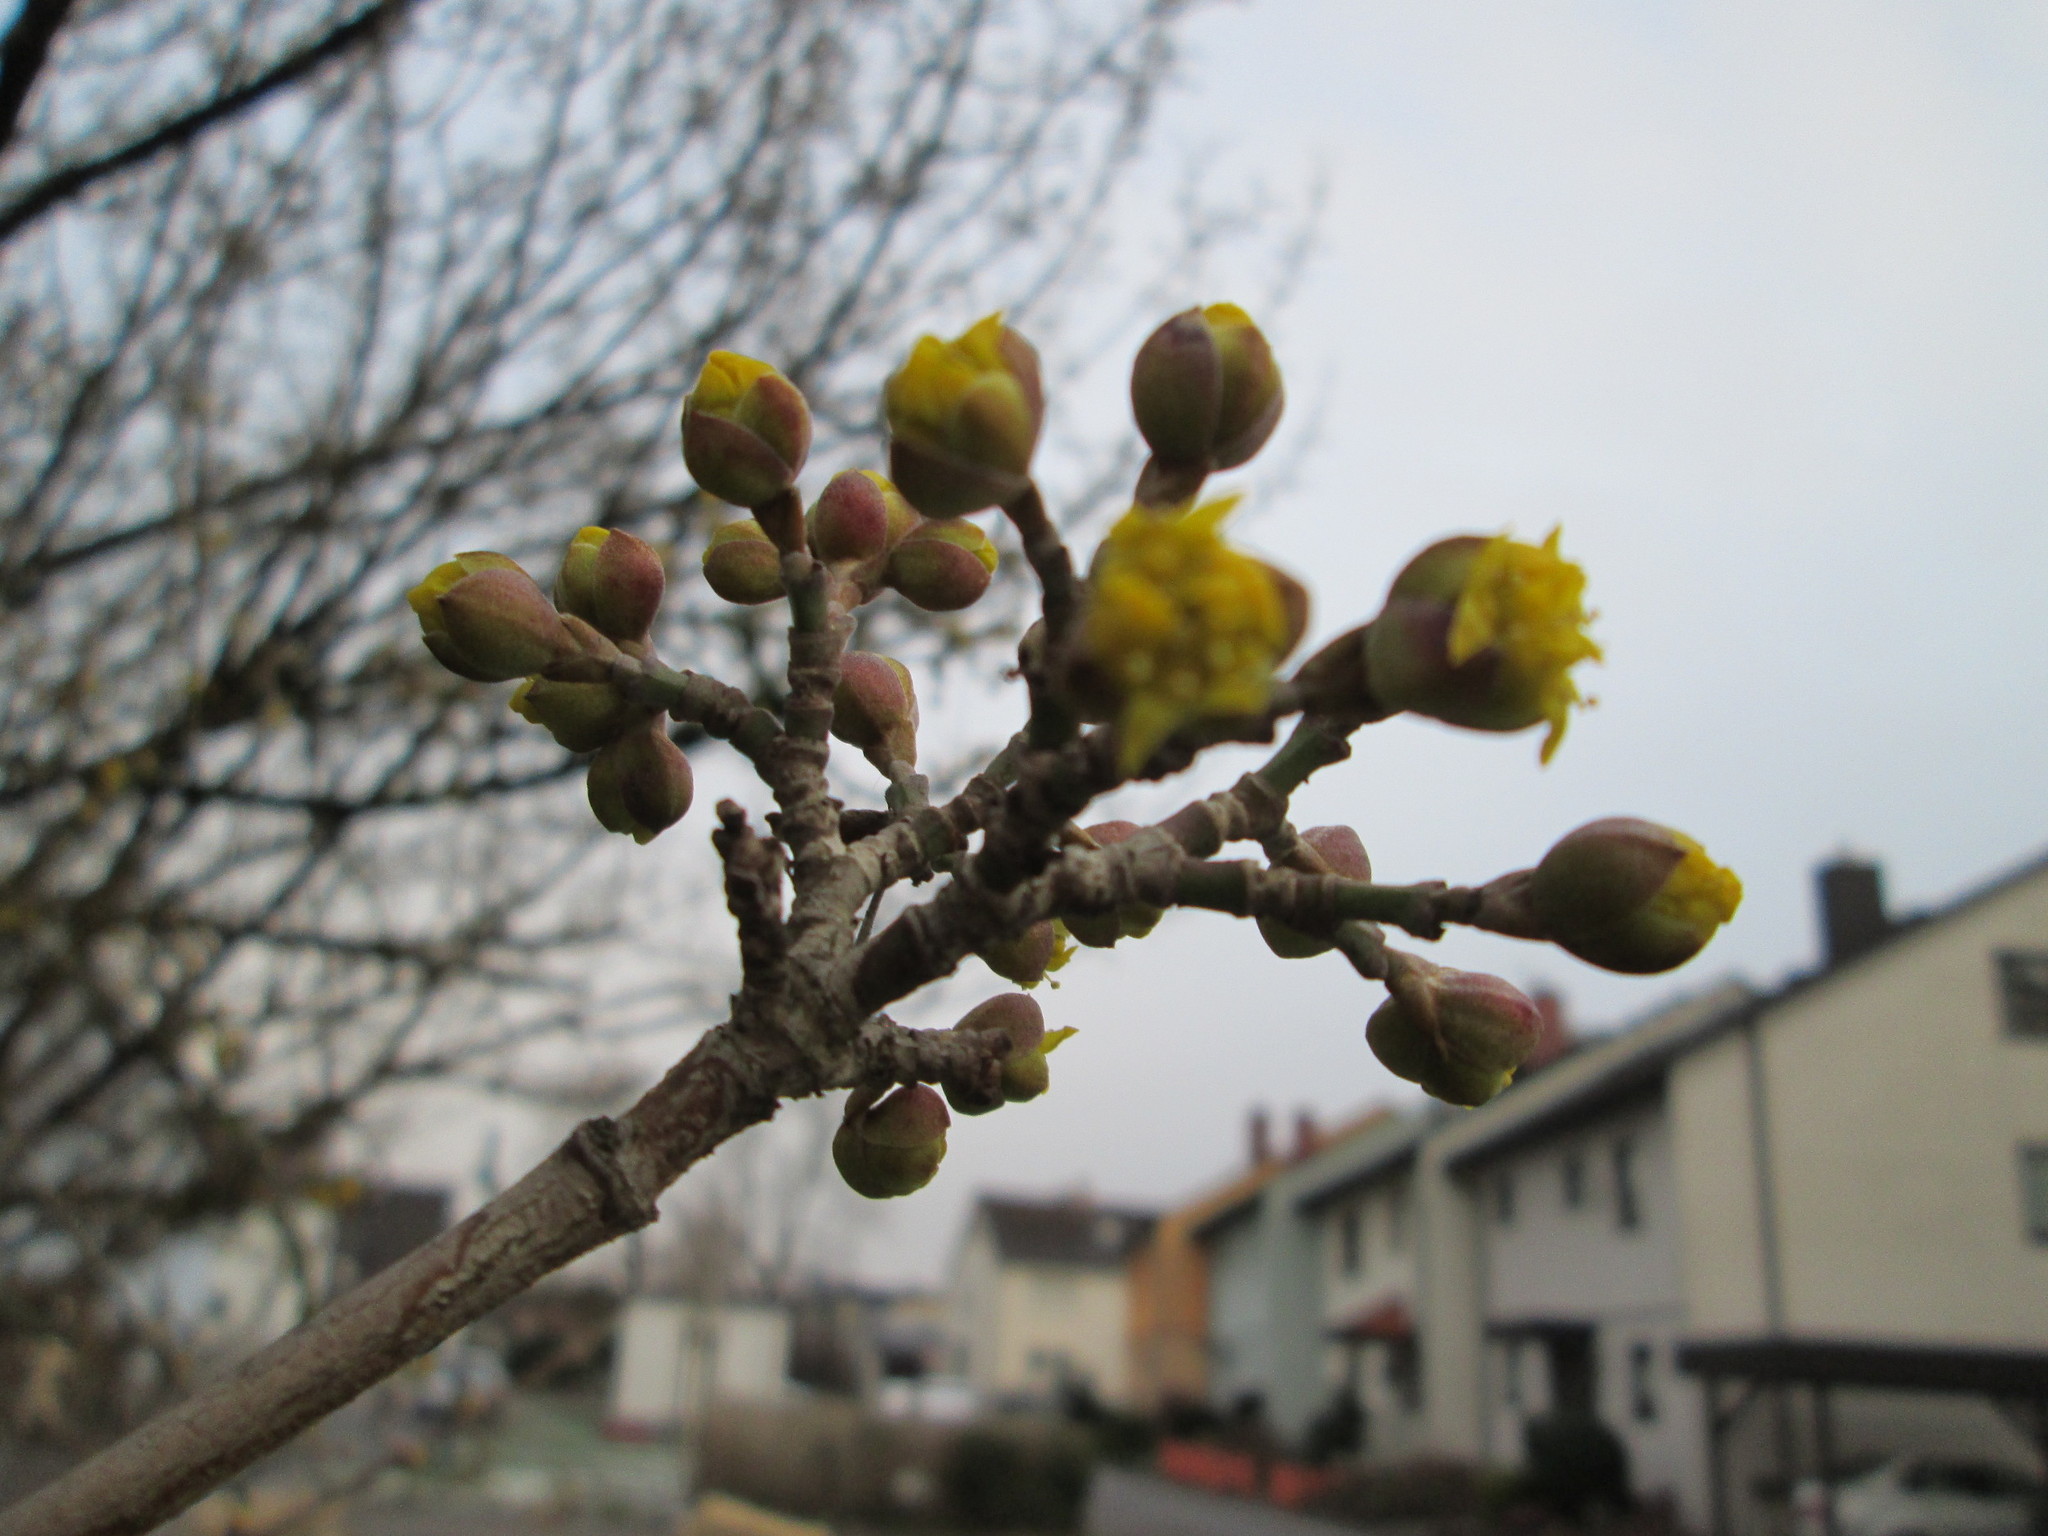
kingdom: Plantae
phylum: Tracheophyta
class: Magnoliopsida
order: Cornales
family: Cornaceae
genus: Cornus
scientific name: Cornus mas
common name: Cornelian-cherry
